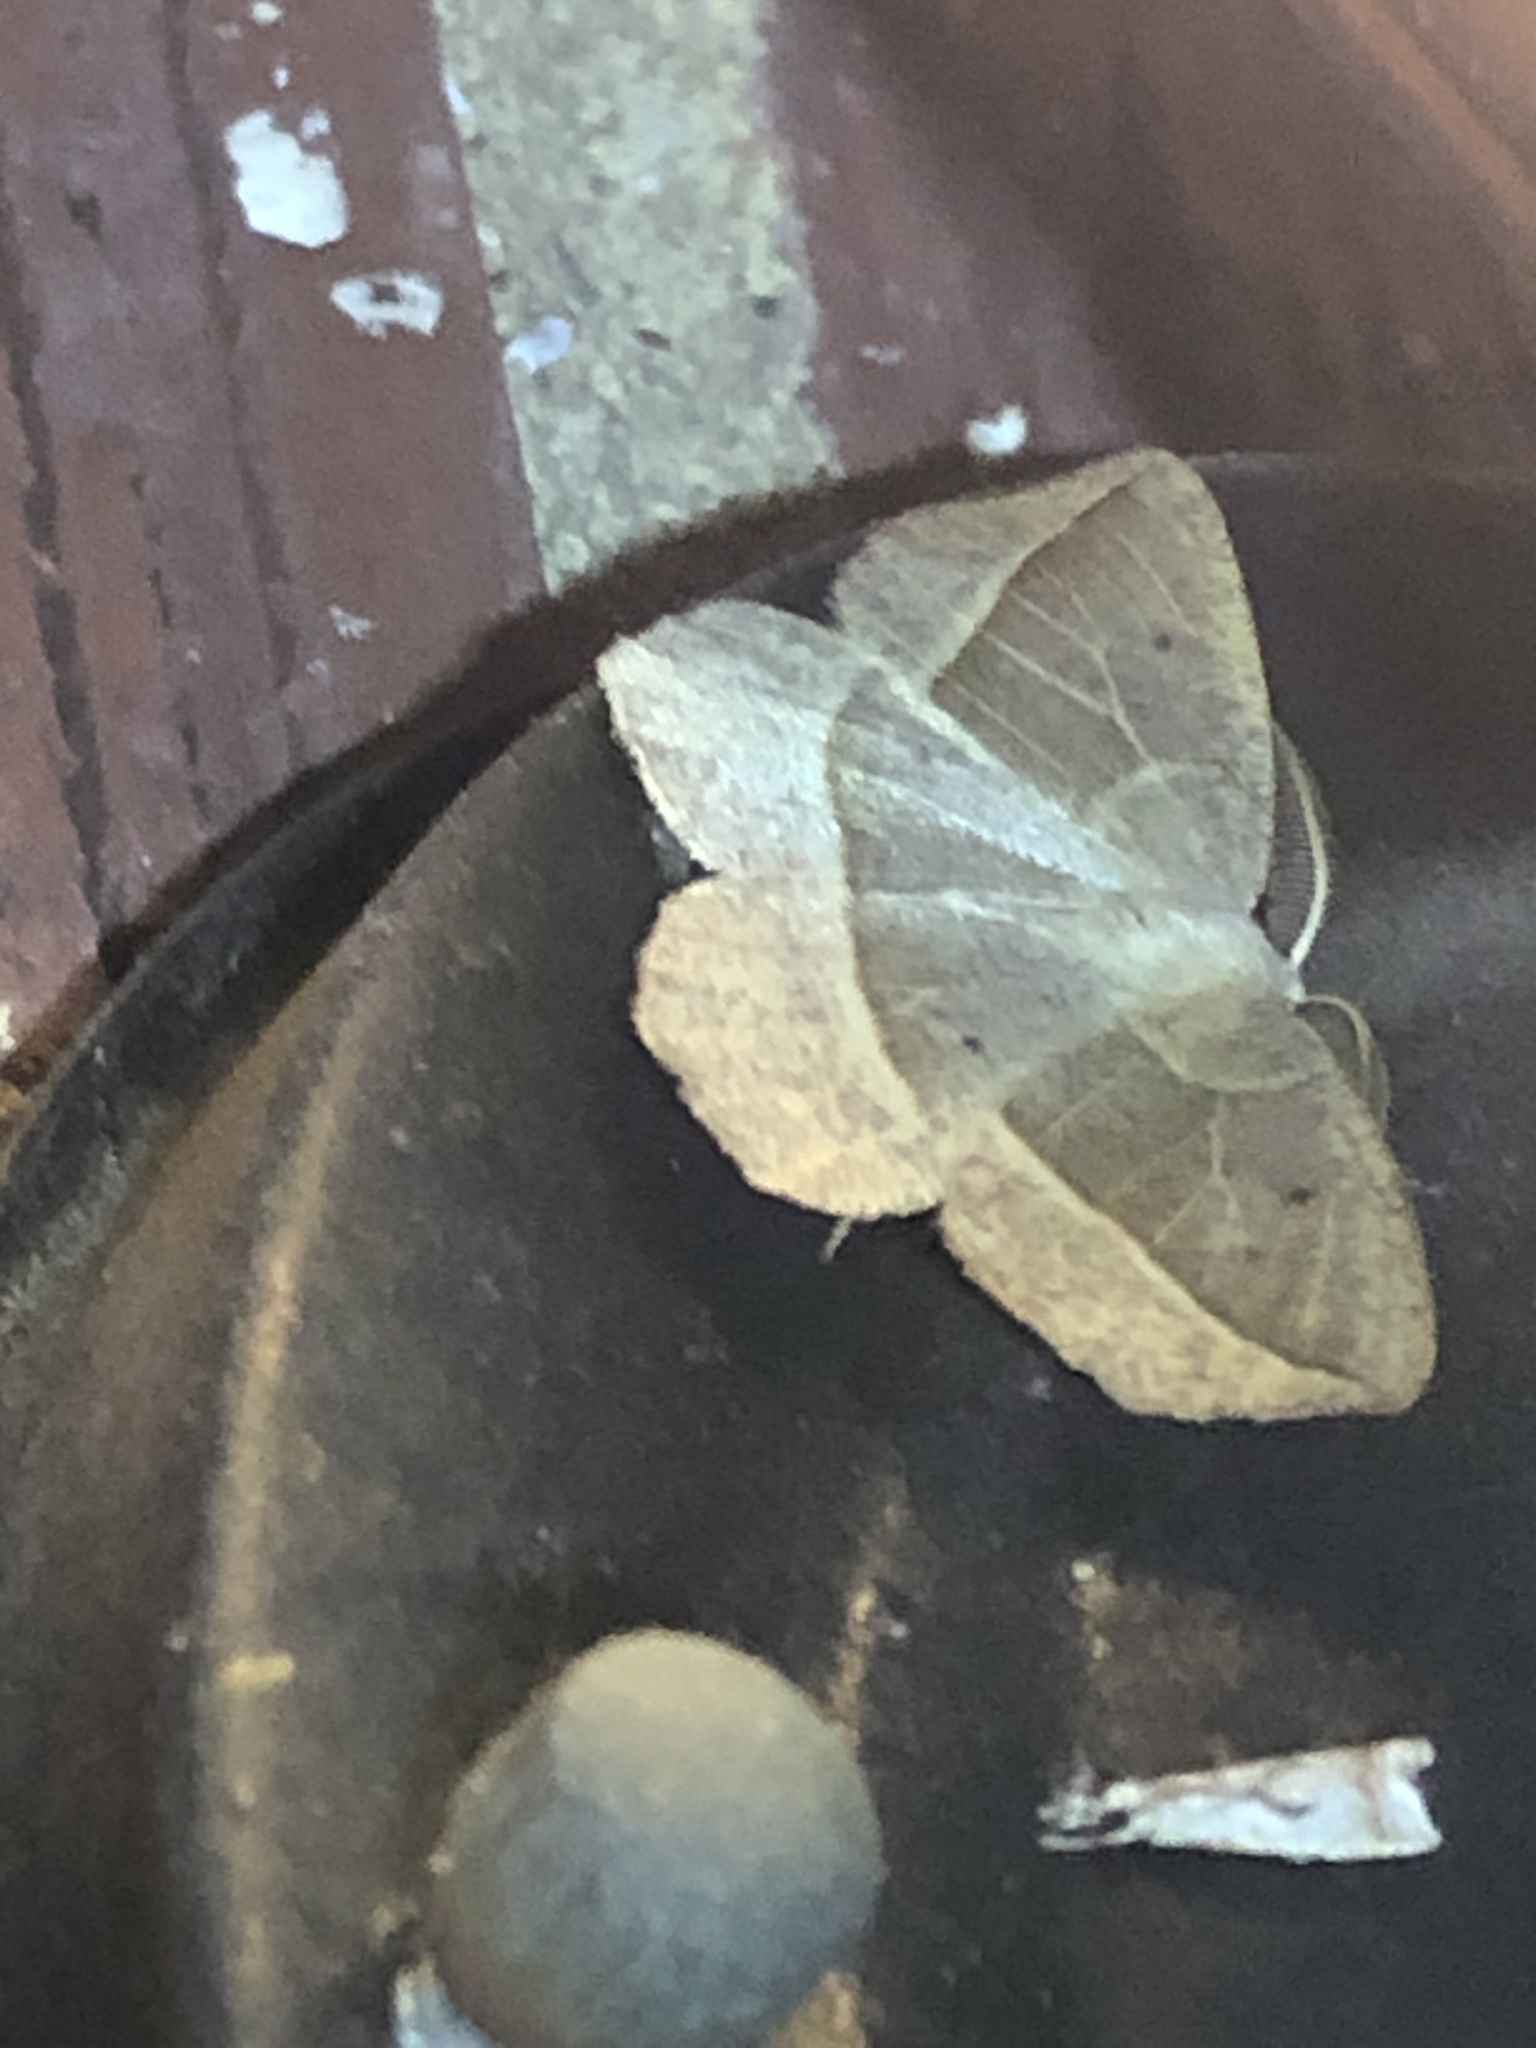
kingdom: Animalia
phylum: Arthropoda
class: Insecta
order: Lepidoptera
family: Geometridae
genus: Eusarca
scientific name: Eusarca confusaria
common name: Confused eusarca
